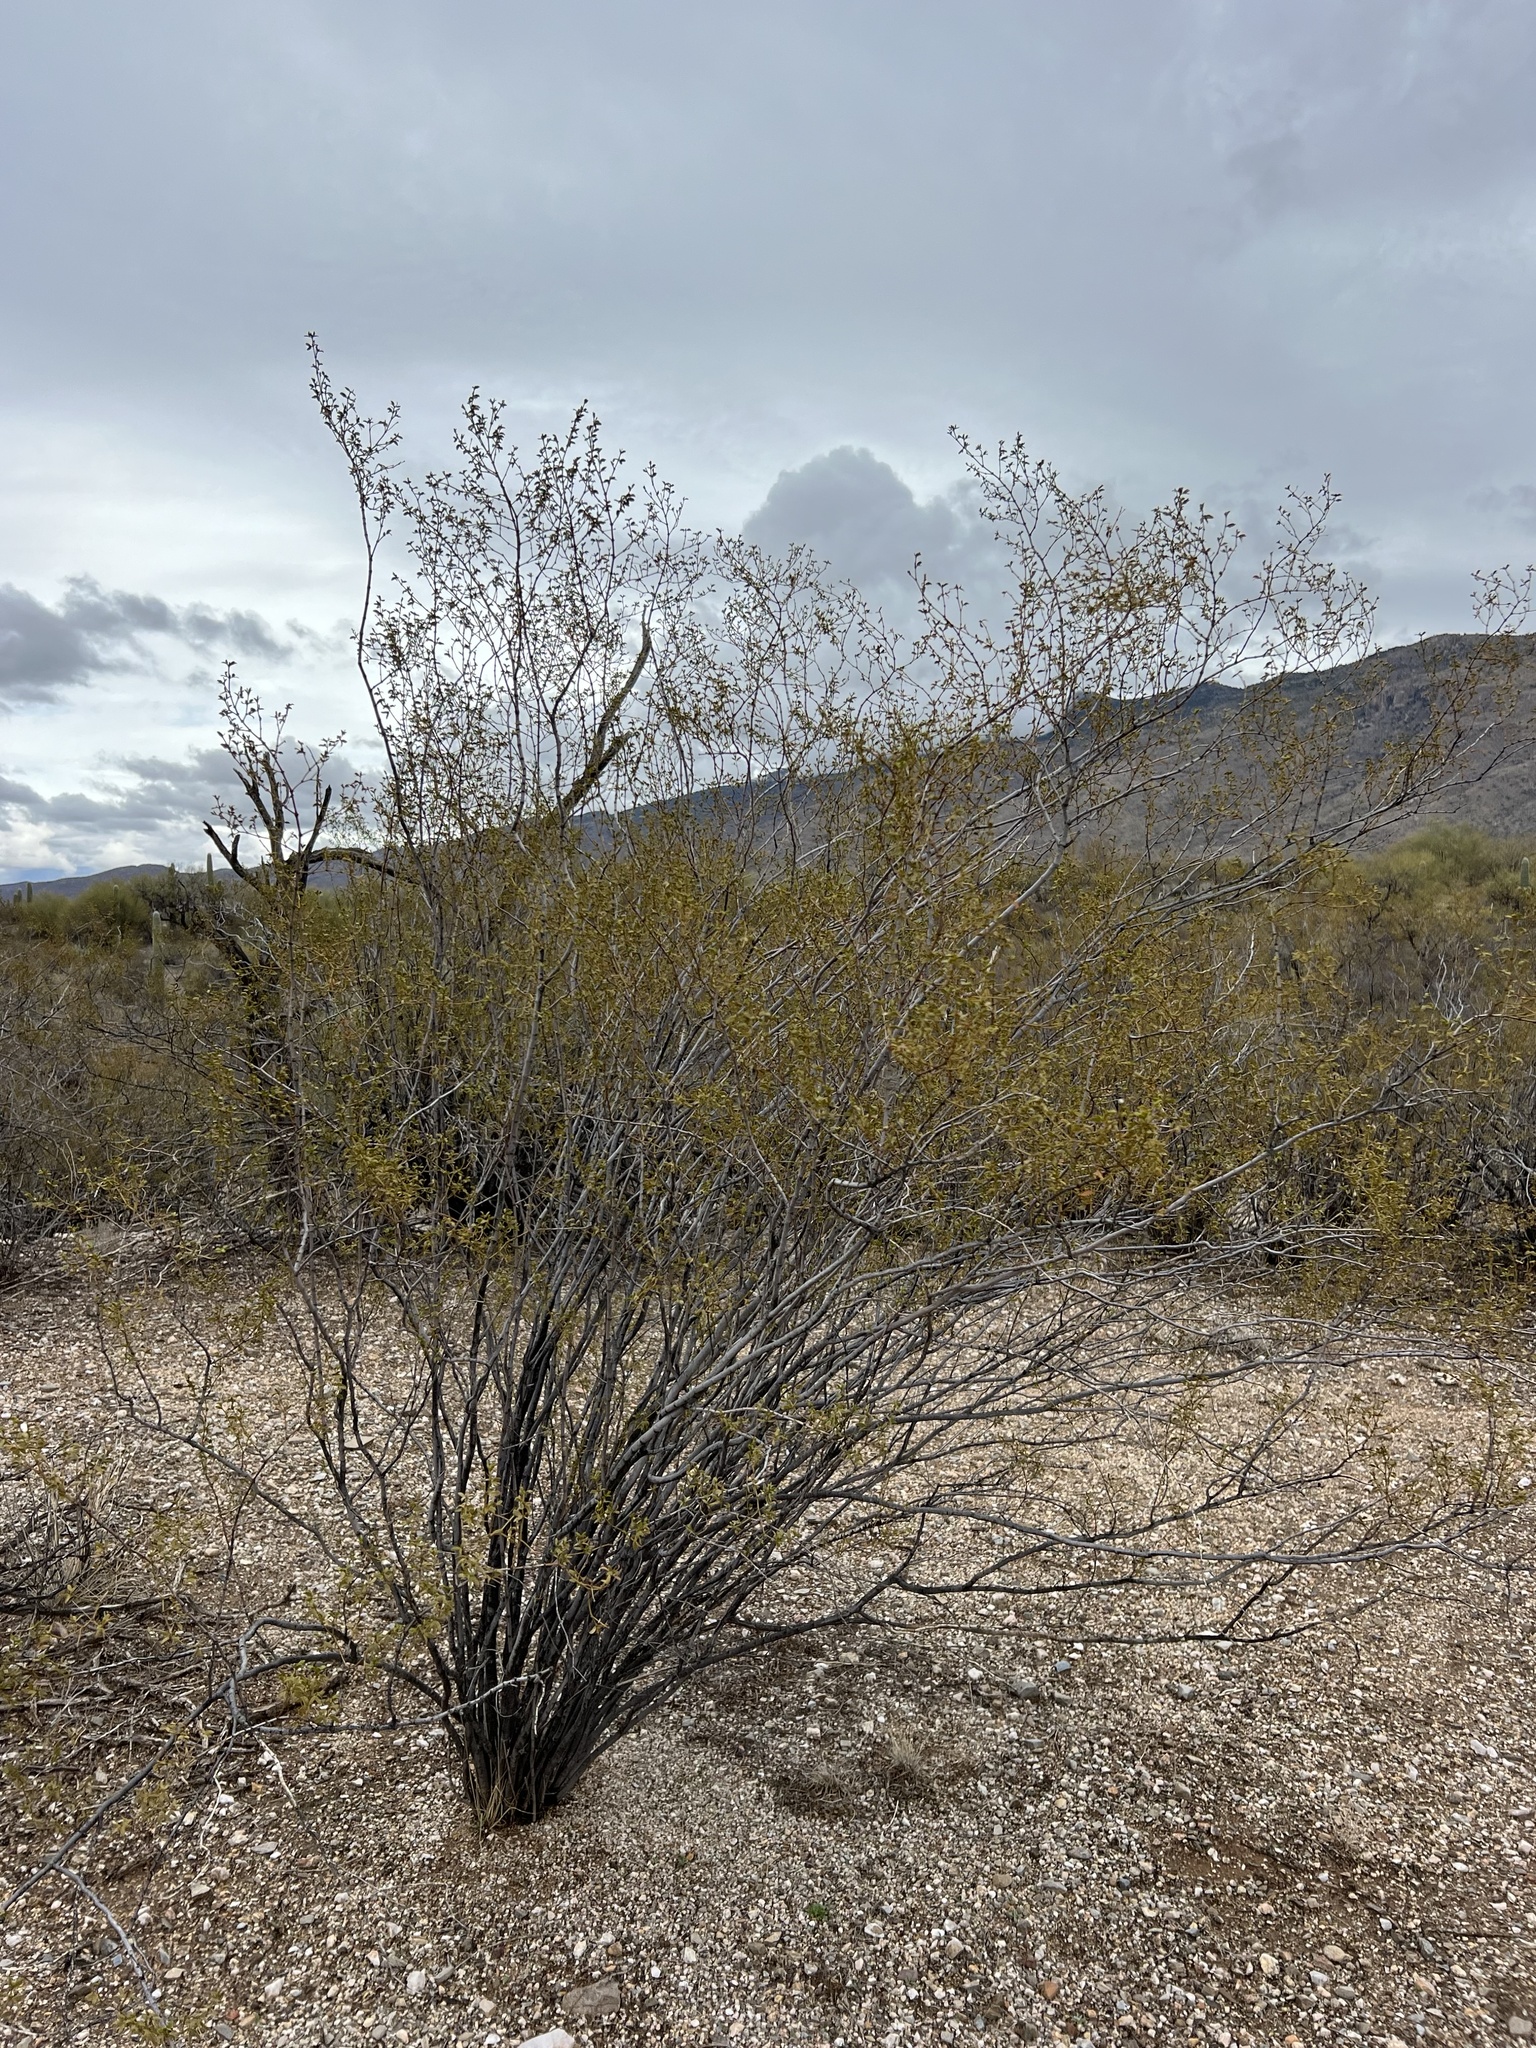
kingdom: Plantae
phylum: Tracheophyta
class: Magnoliopsida
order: Zygophyllales
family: Zygophyllaceae
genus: Larrea
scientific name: Larrea tridentata
